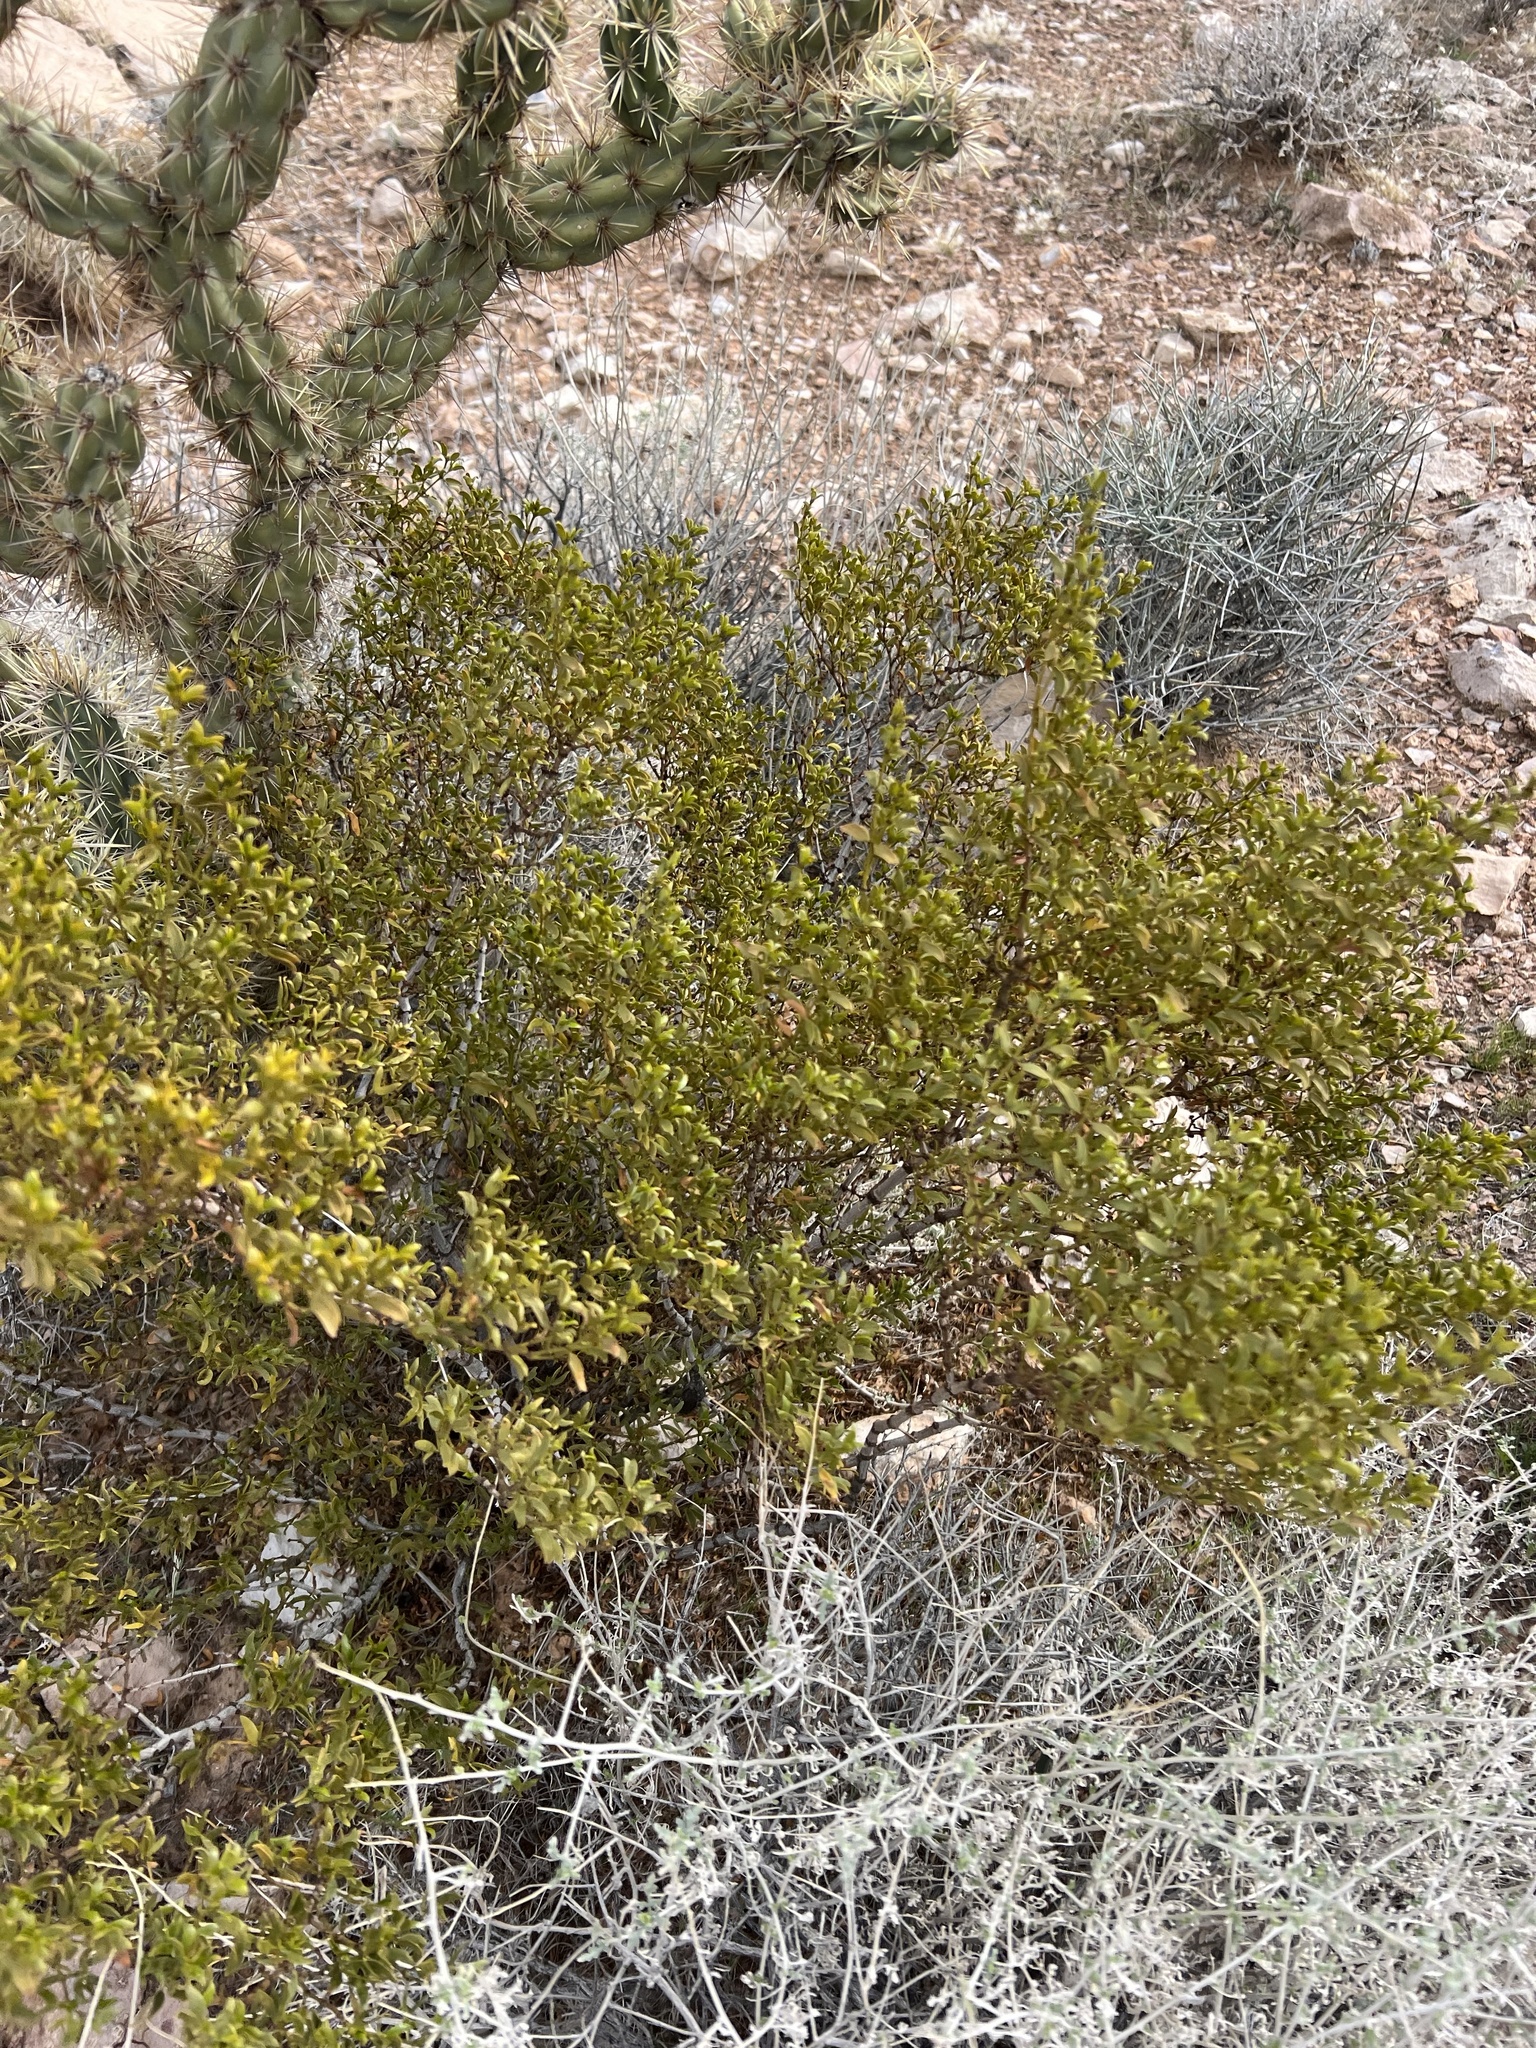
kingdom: Plantae
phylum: Tracheophyta
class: Magnoliopsida
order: Zygophyllales
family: Zygophyllaceae
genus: Larrea
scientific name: Larrea tridentata
